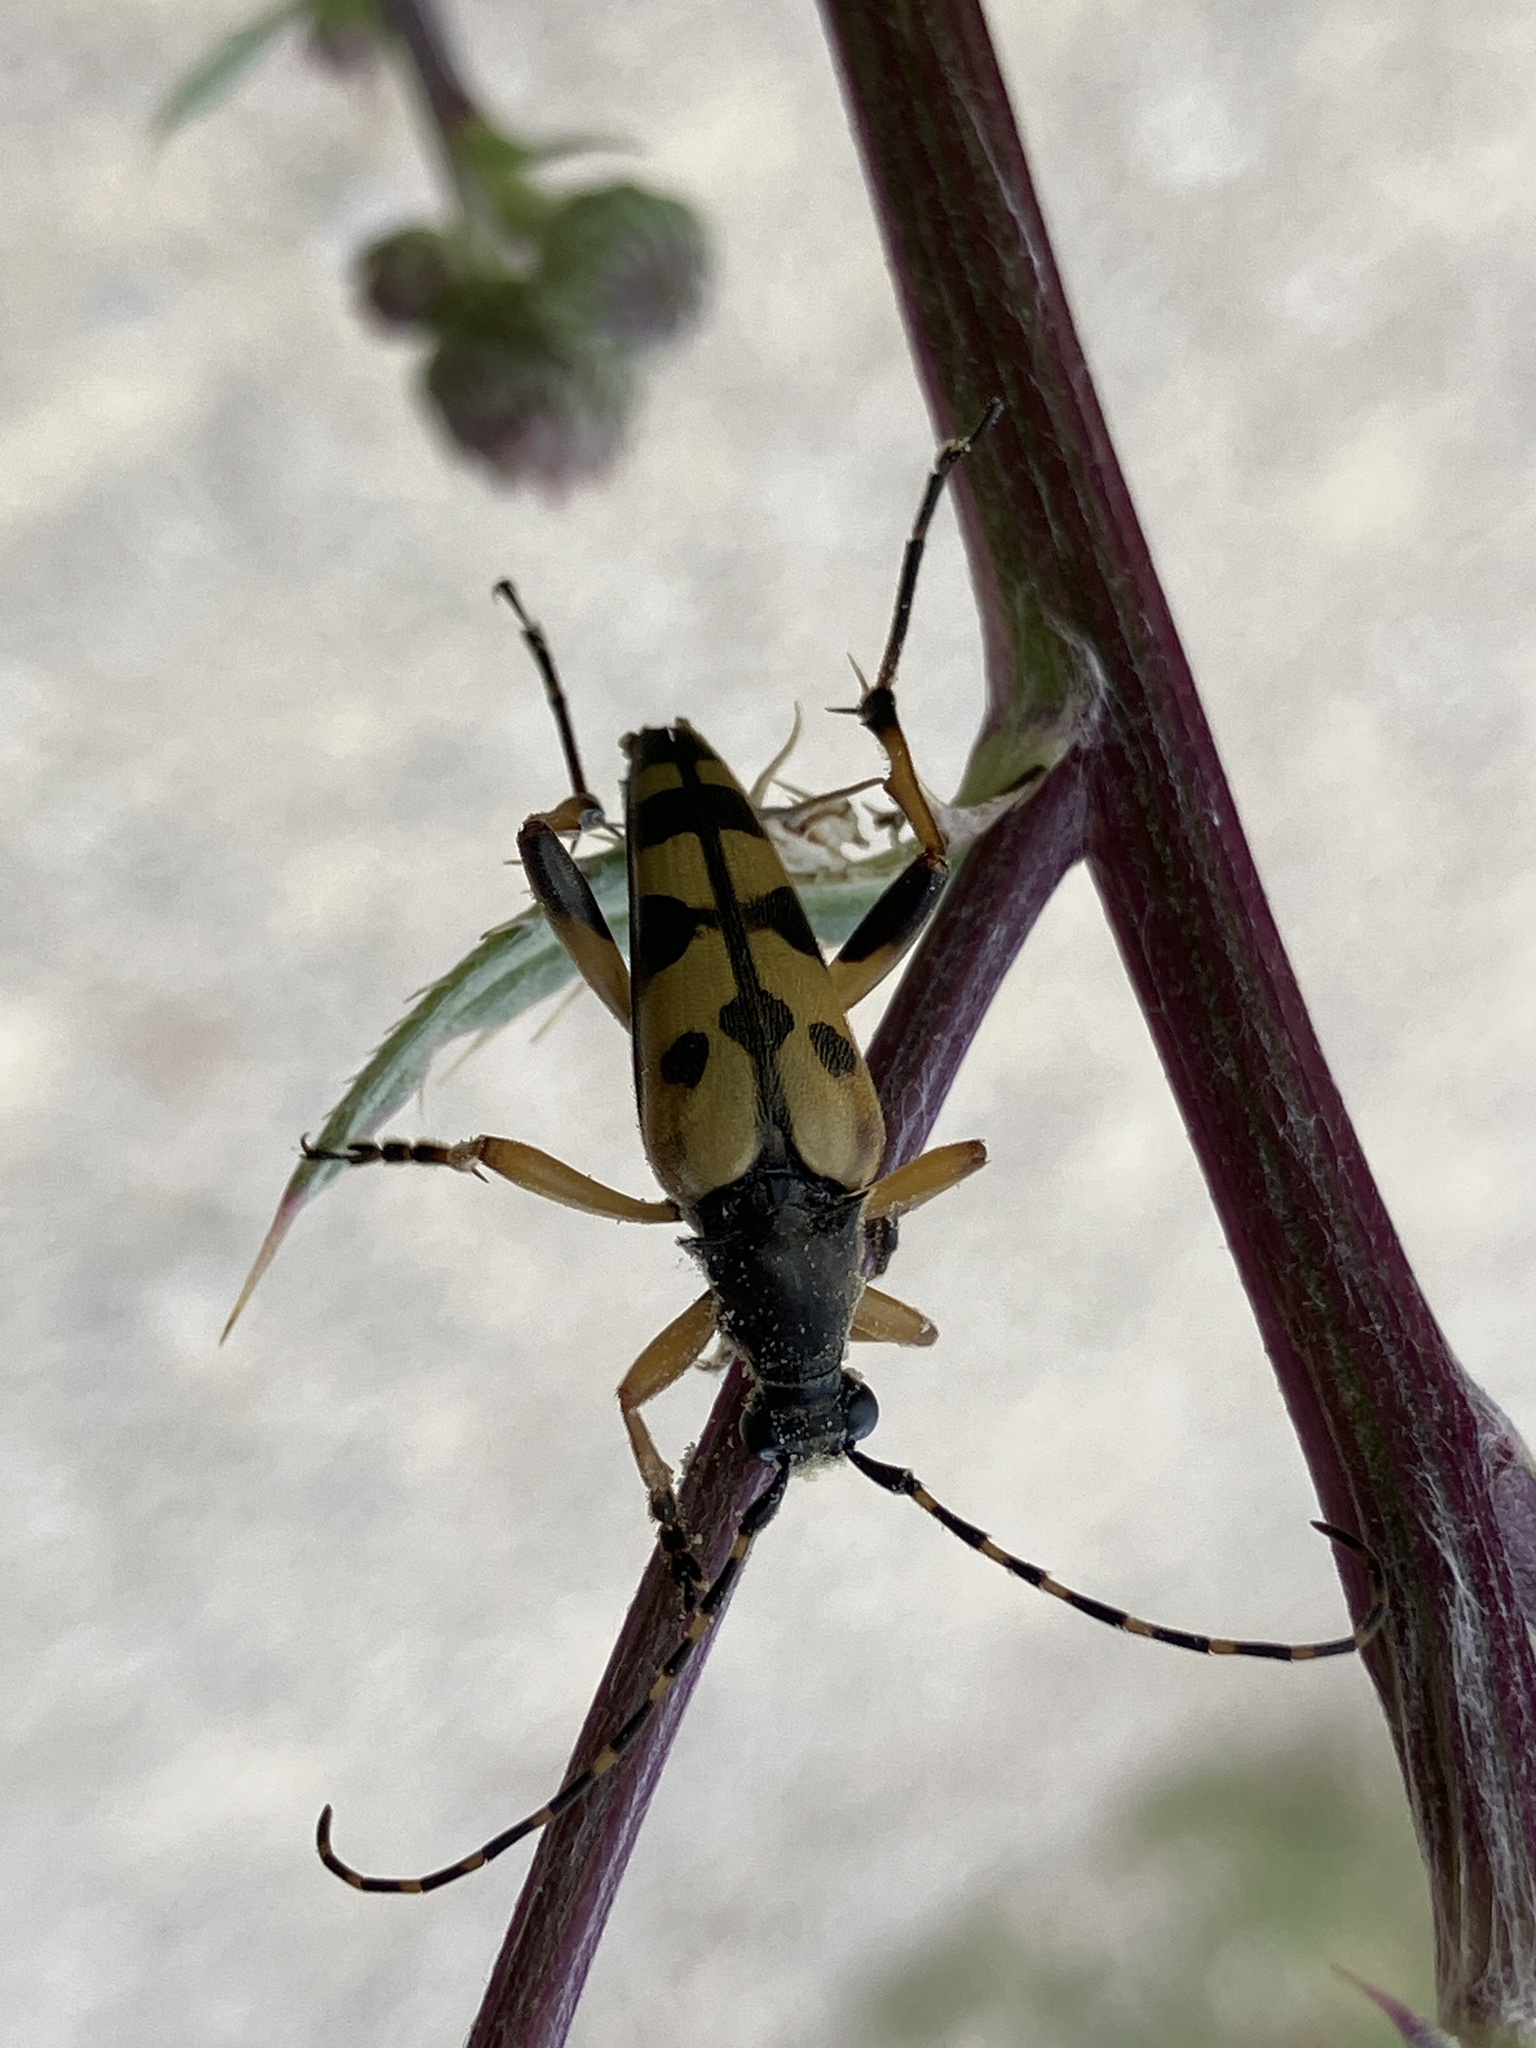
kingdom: Animalia
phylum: Arthropoda
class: Insecta
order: Coleoptera
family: Cerambycidae
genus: Rutpela
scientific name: Rutpela maculata
